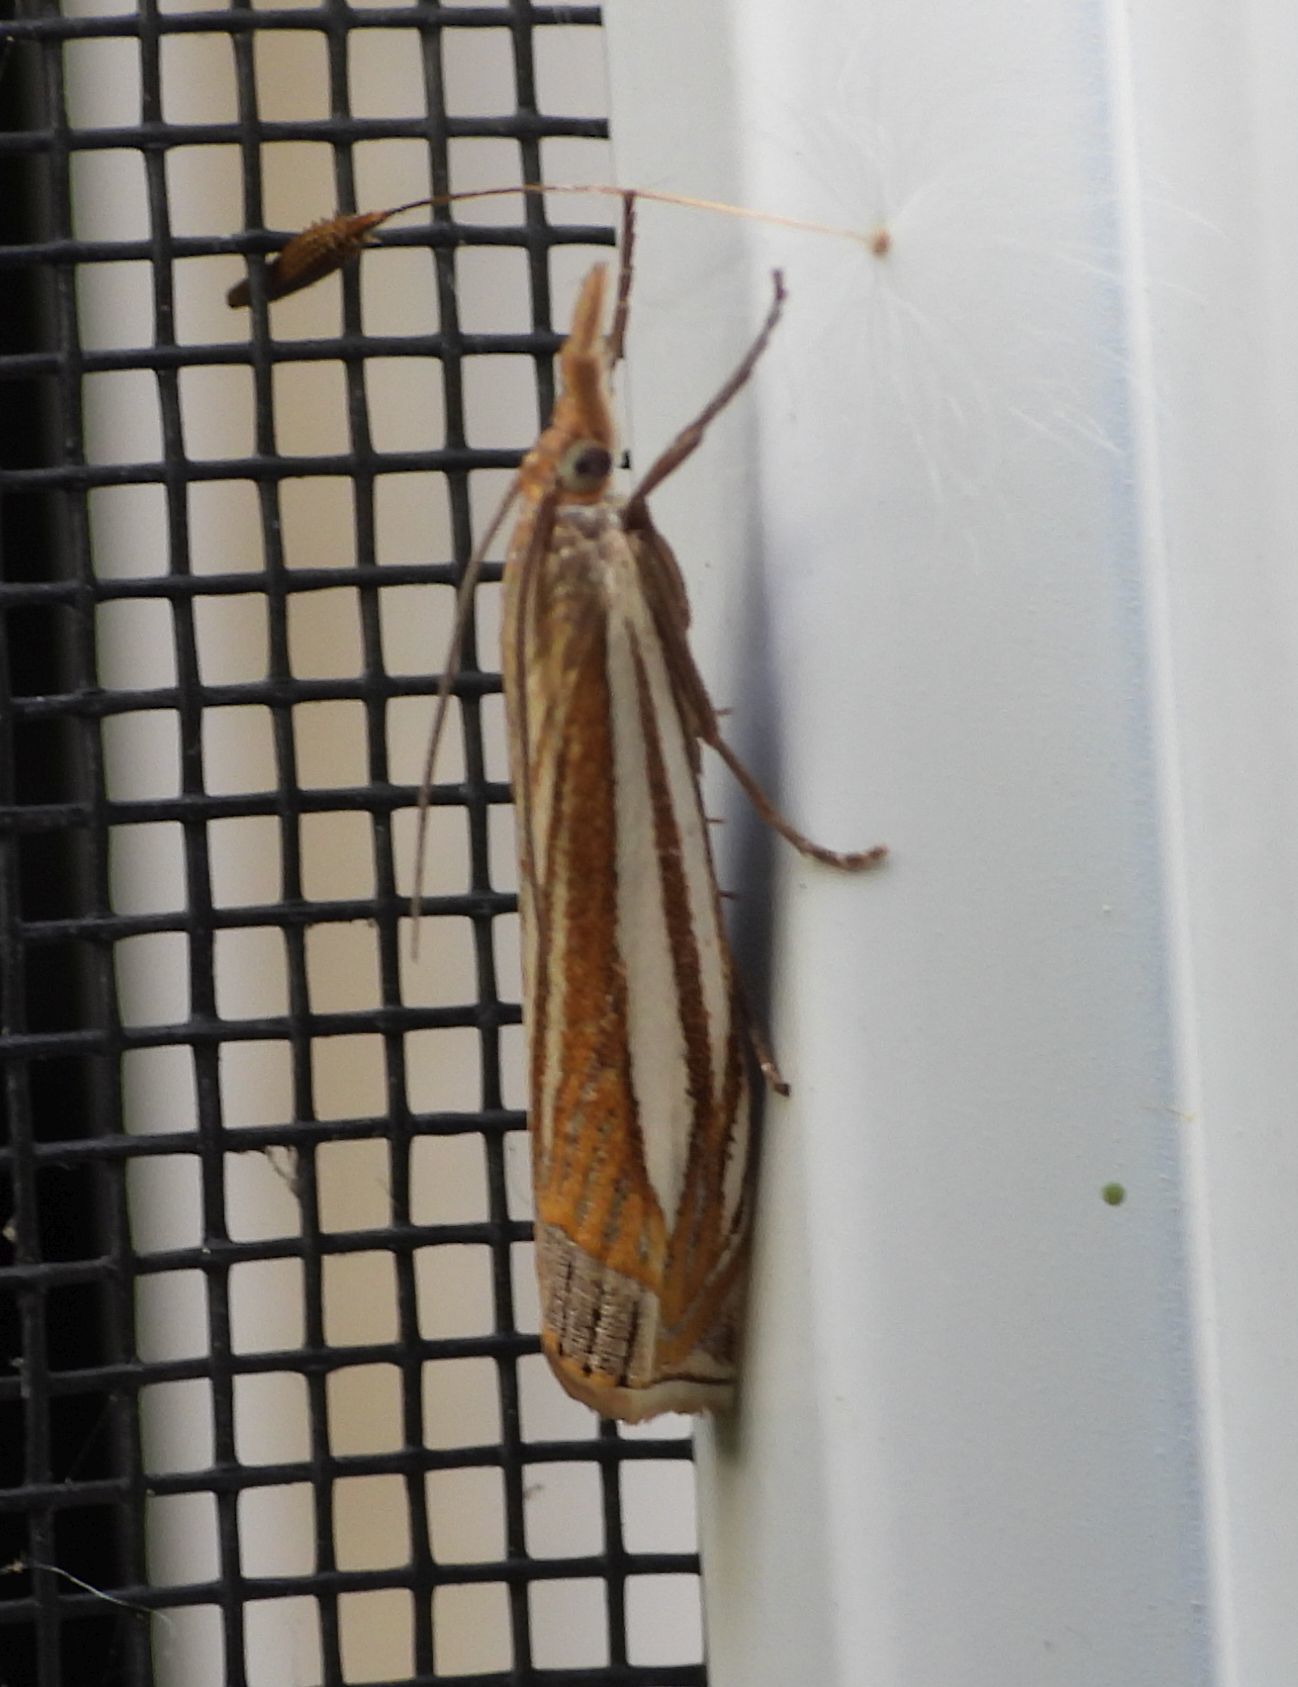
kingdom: Animalia
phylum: Arthropoda
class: Insecta
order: Lepidoptera
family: Crambidae
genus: Crambus
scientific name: Crambus laqueatellus
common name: Eastern grass-veneer
